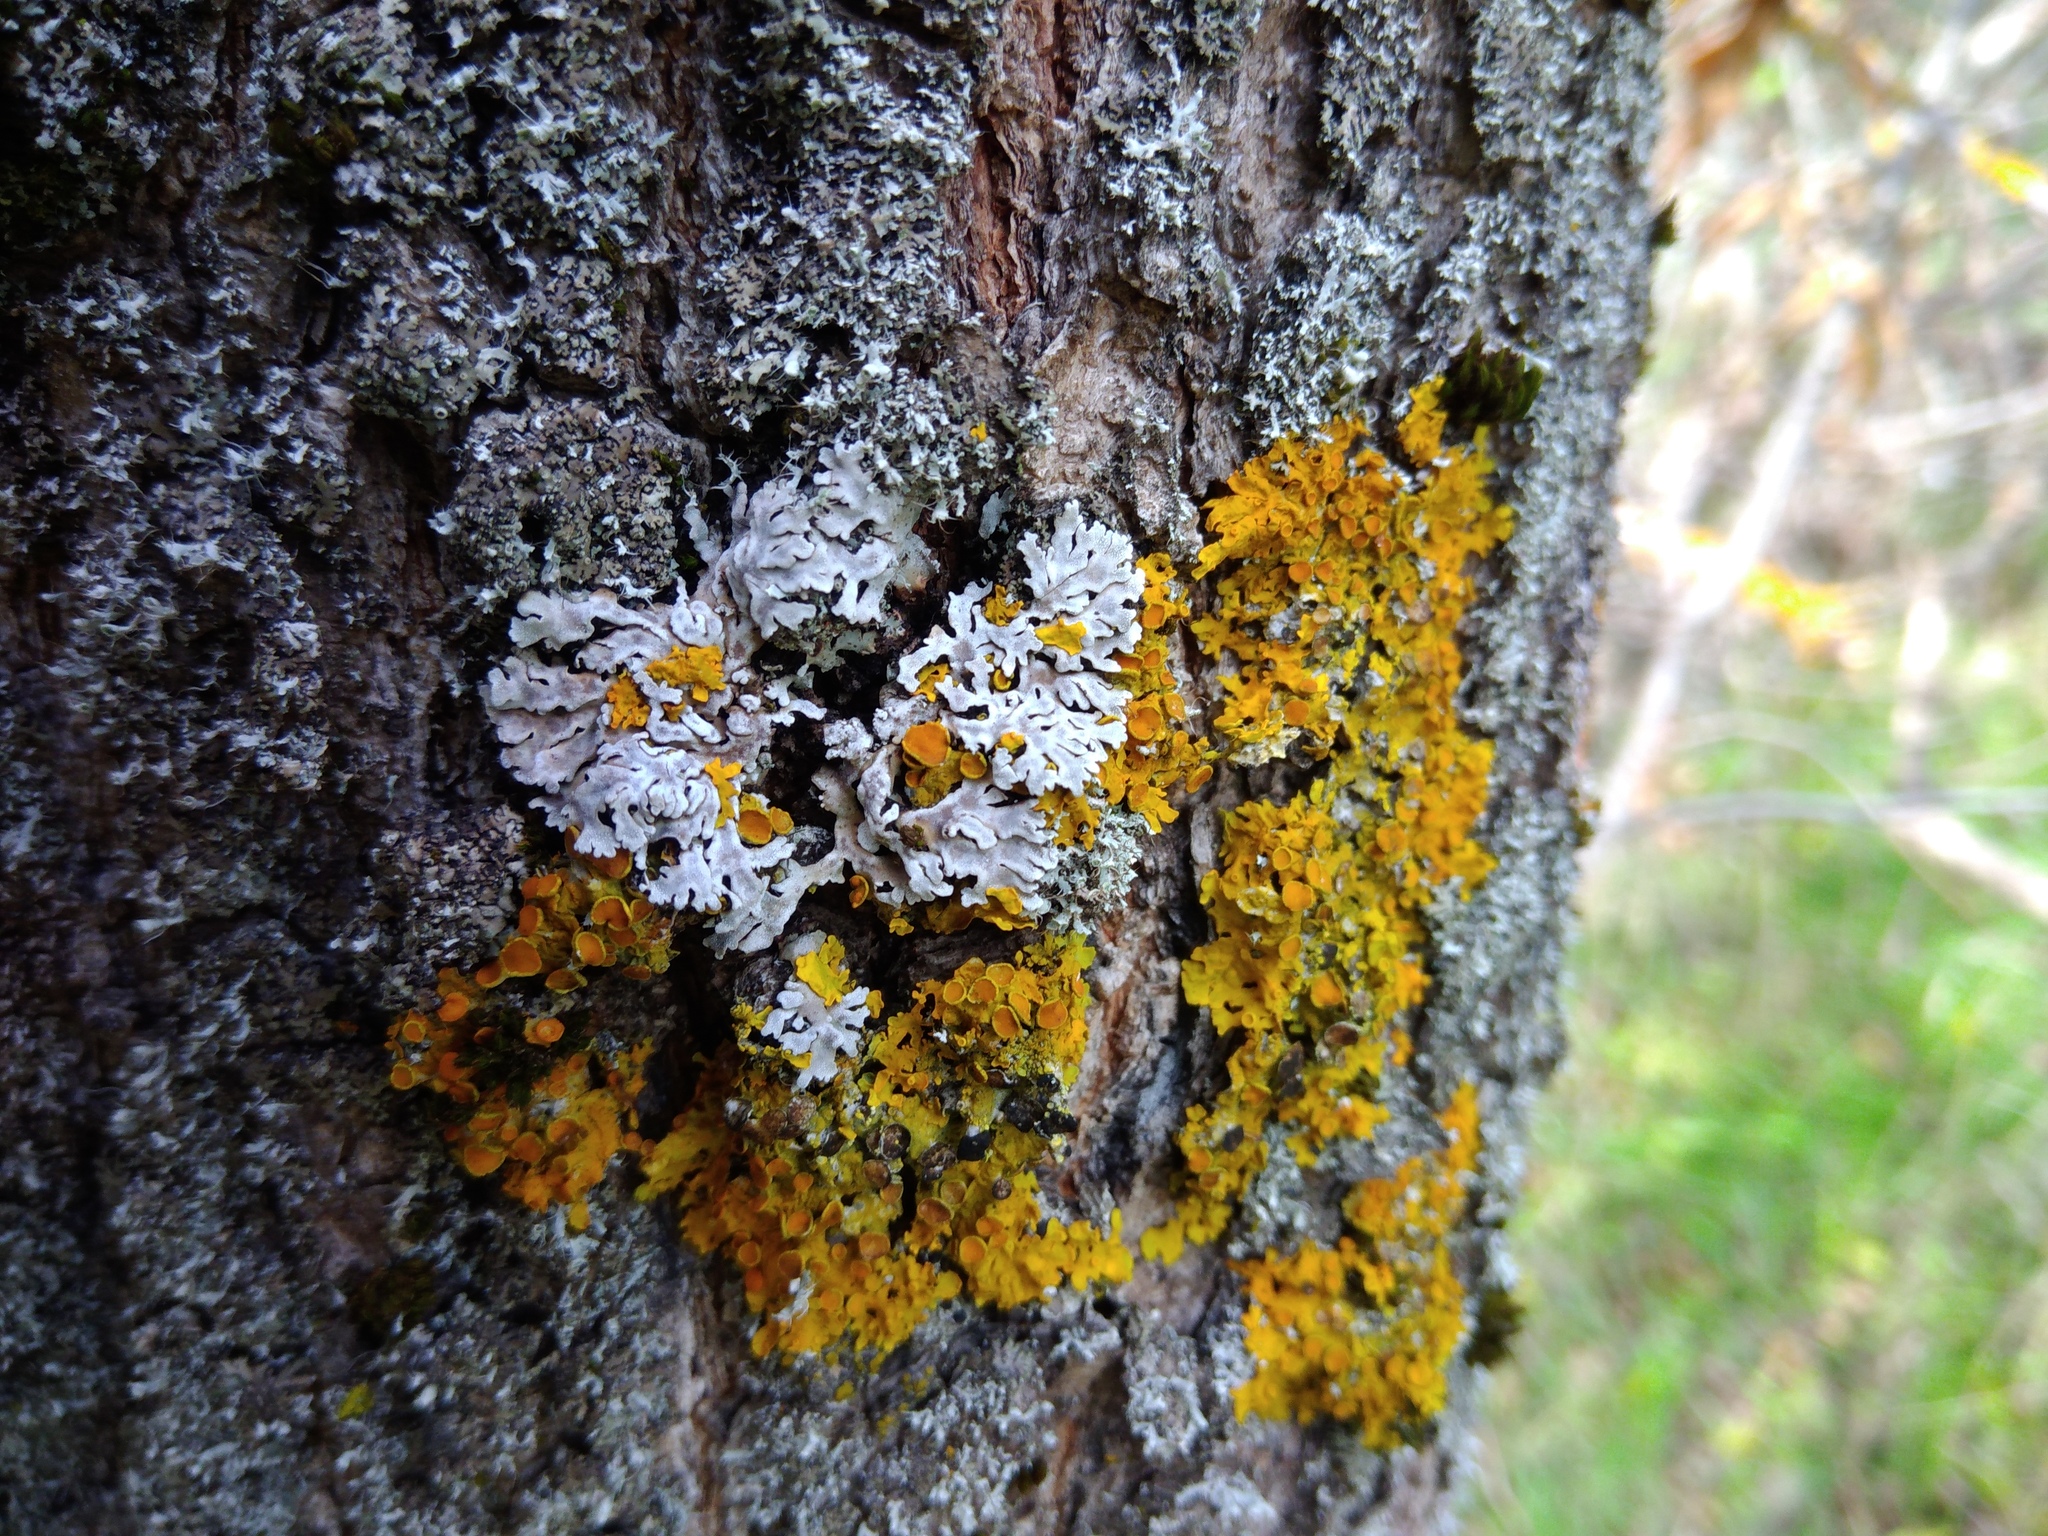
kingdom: Fungi
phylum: Ascomycota
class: Lecanoromycetes
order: Caliciales
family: Physciaceae
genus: Physconia
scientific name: Physconia distorta
